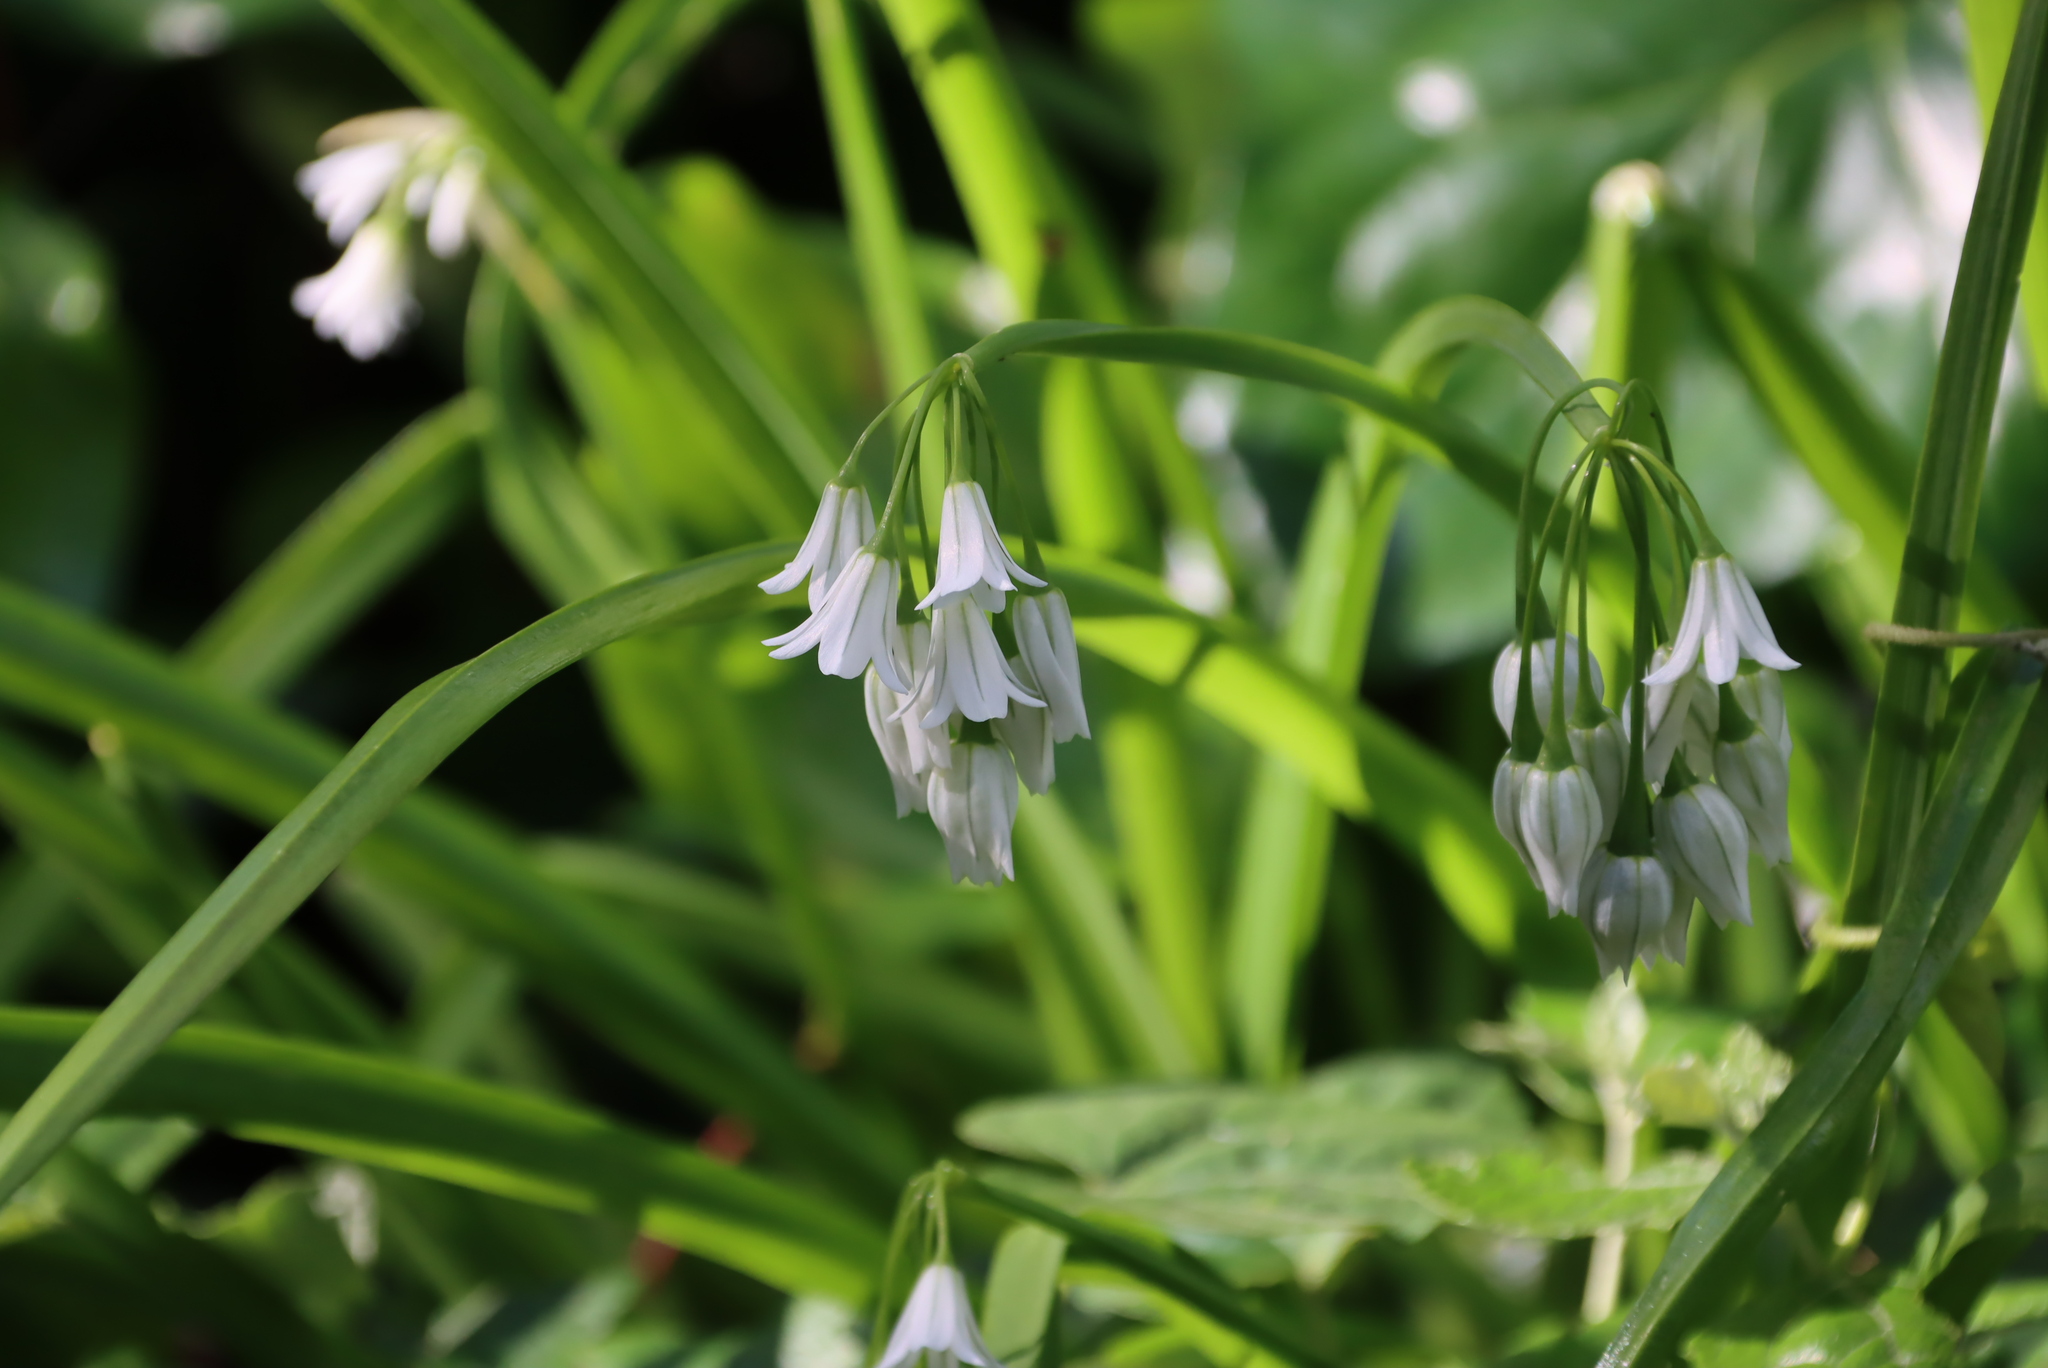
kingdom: Plantae
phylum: Tracheophyta
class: Liliopsida
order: Asparagales
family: Amaryllidaceae
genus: Allium
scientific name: Allium triquetrum
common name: Three-cornered garlic
